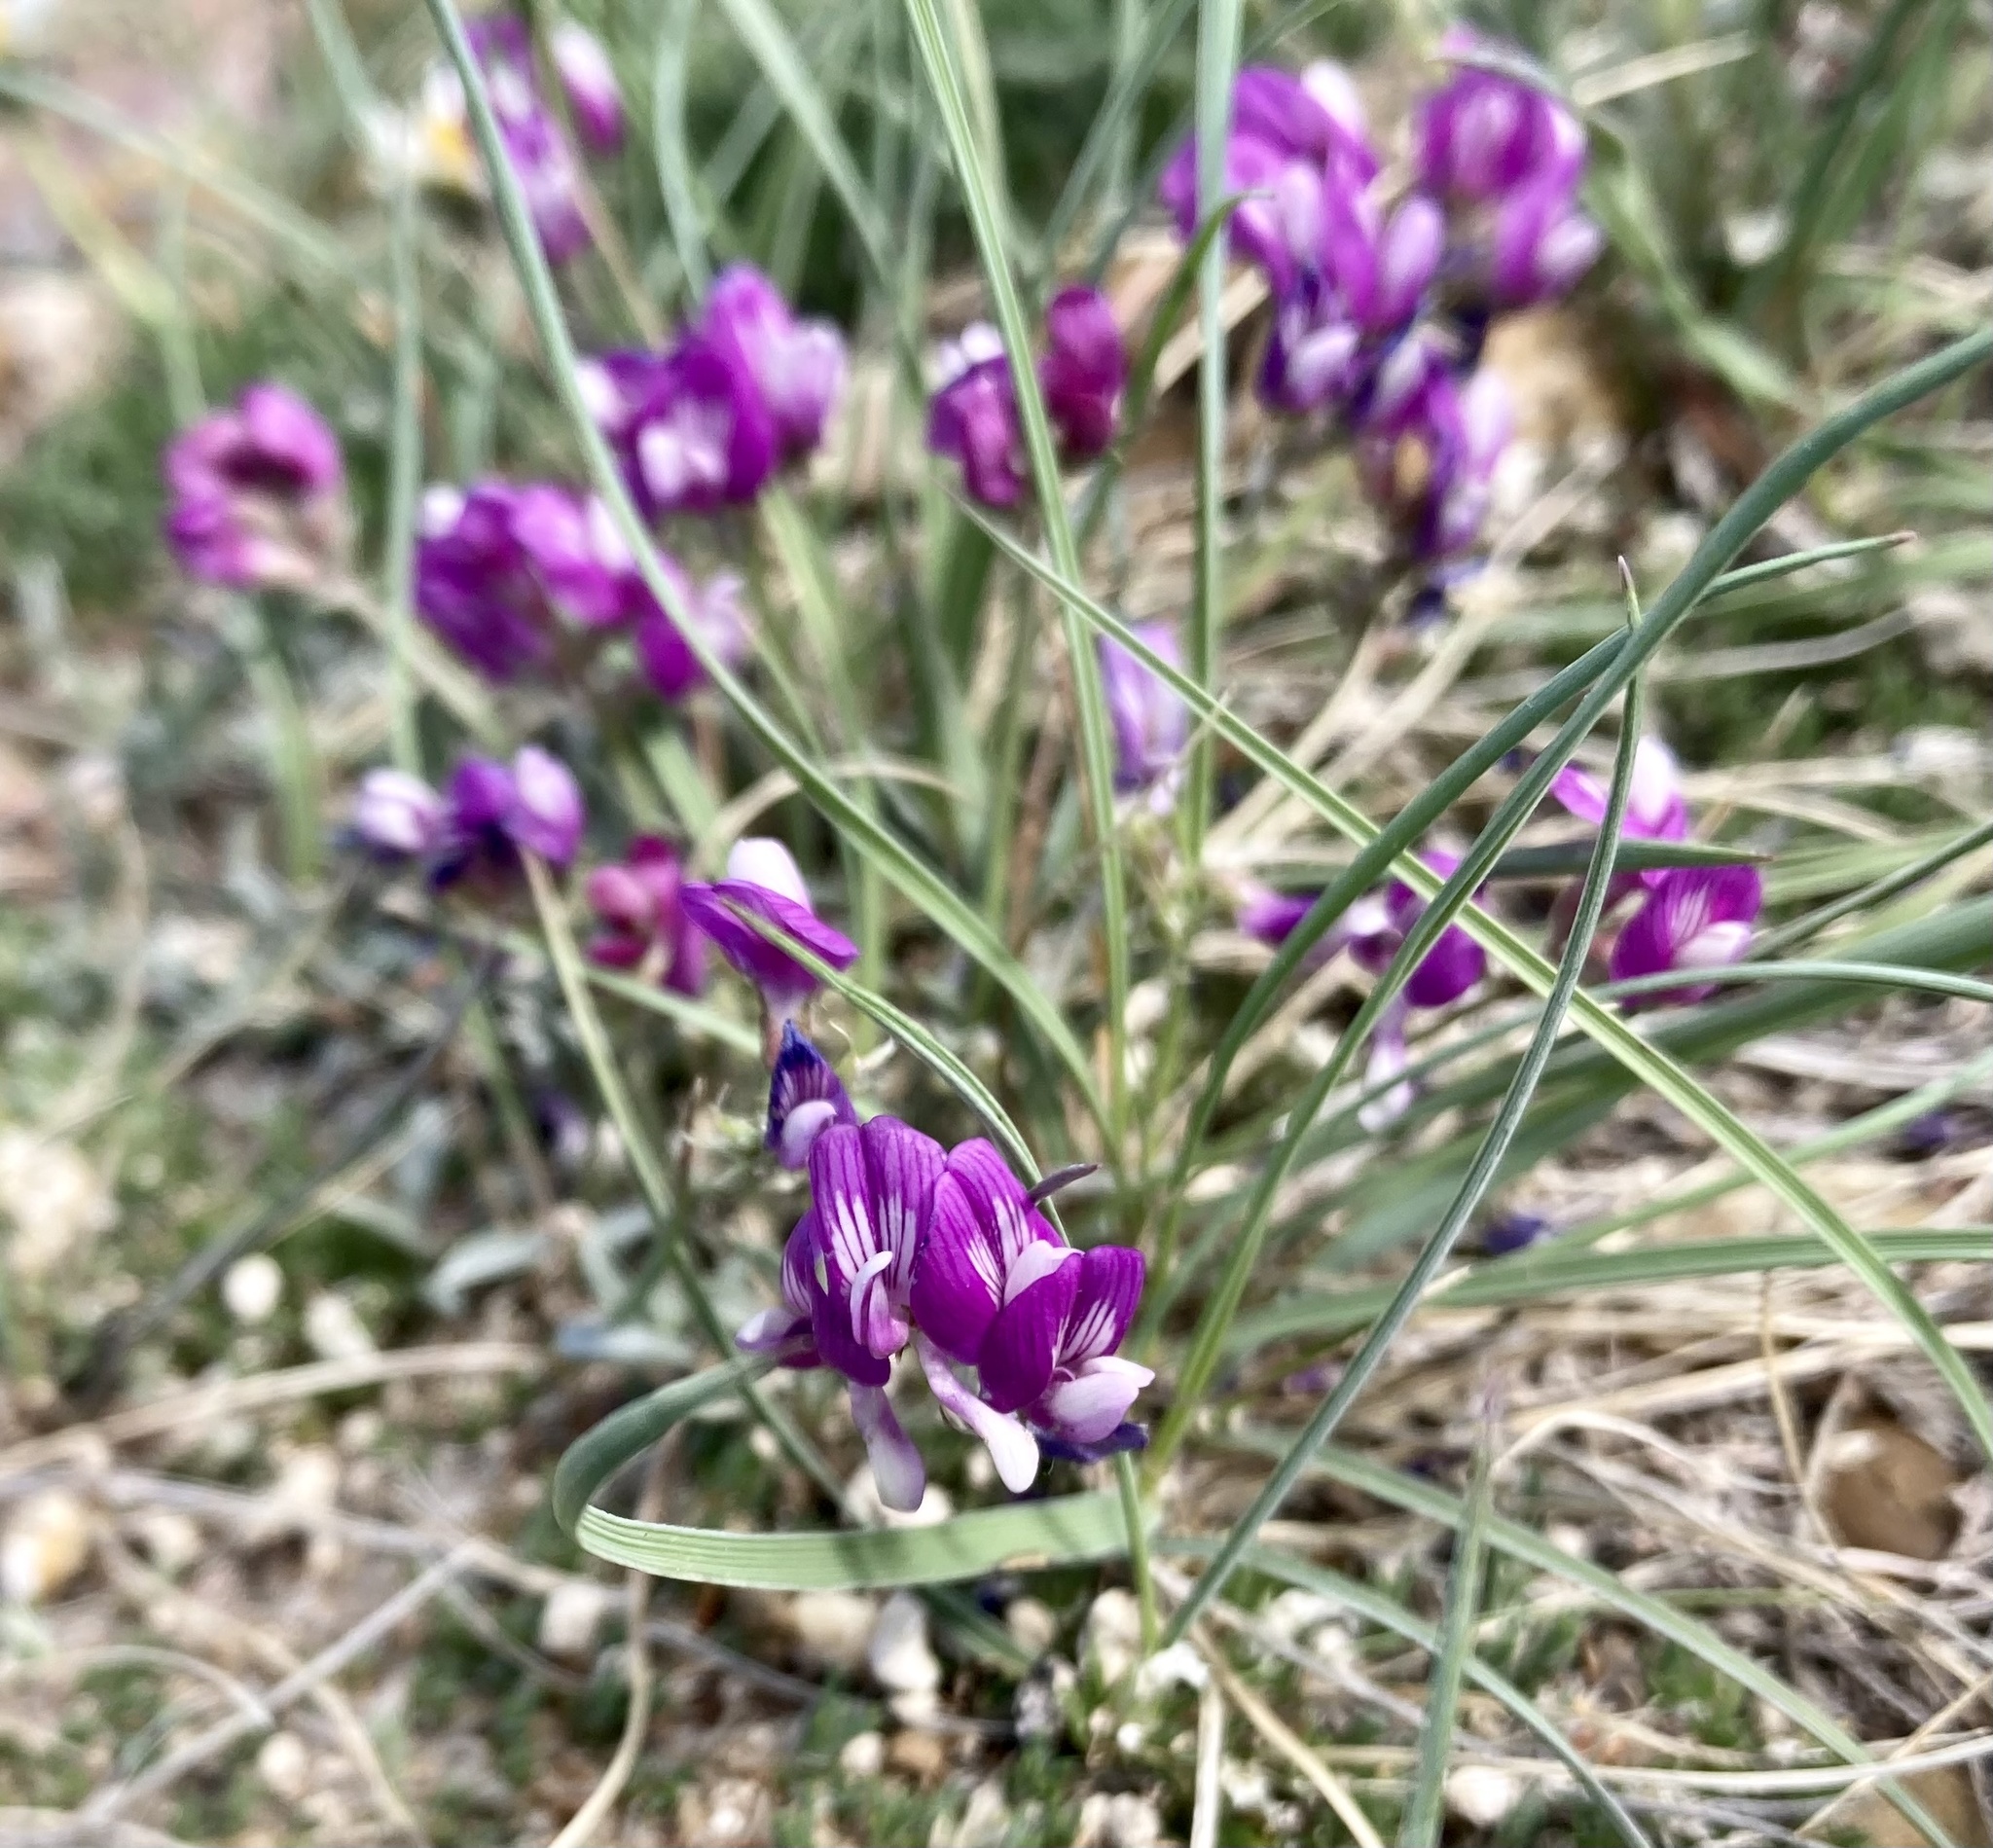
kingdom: Plantae
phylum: Tracheophyta
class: Magnoliopsida
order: Fabales
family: Fabaceae
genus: Astragalus
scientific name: Astragalus spatulatus
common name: Draba milk-vetch
